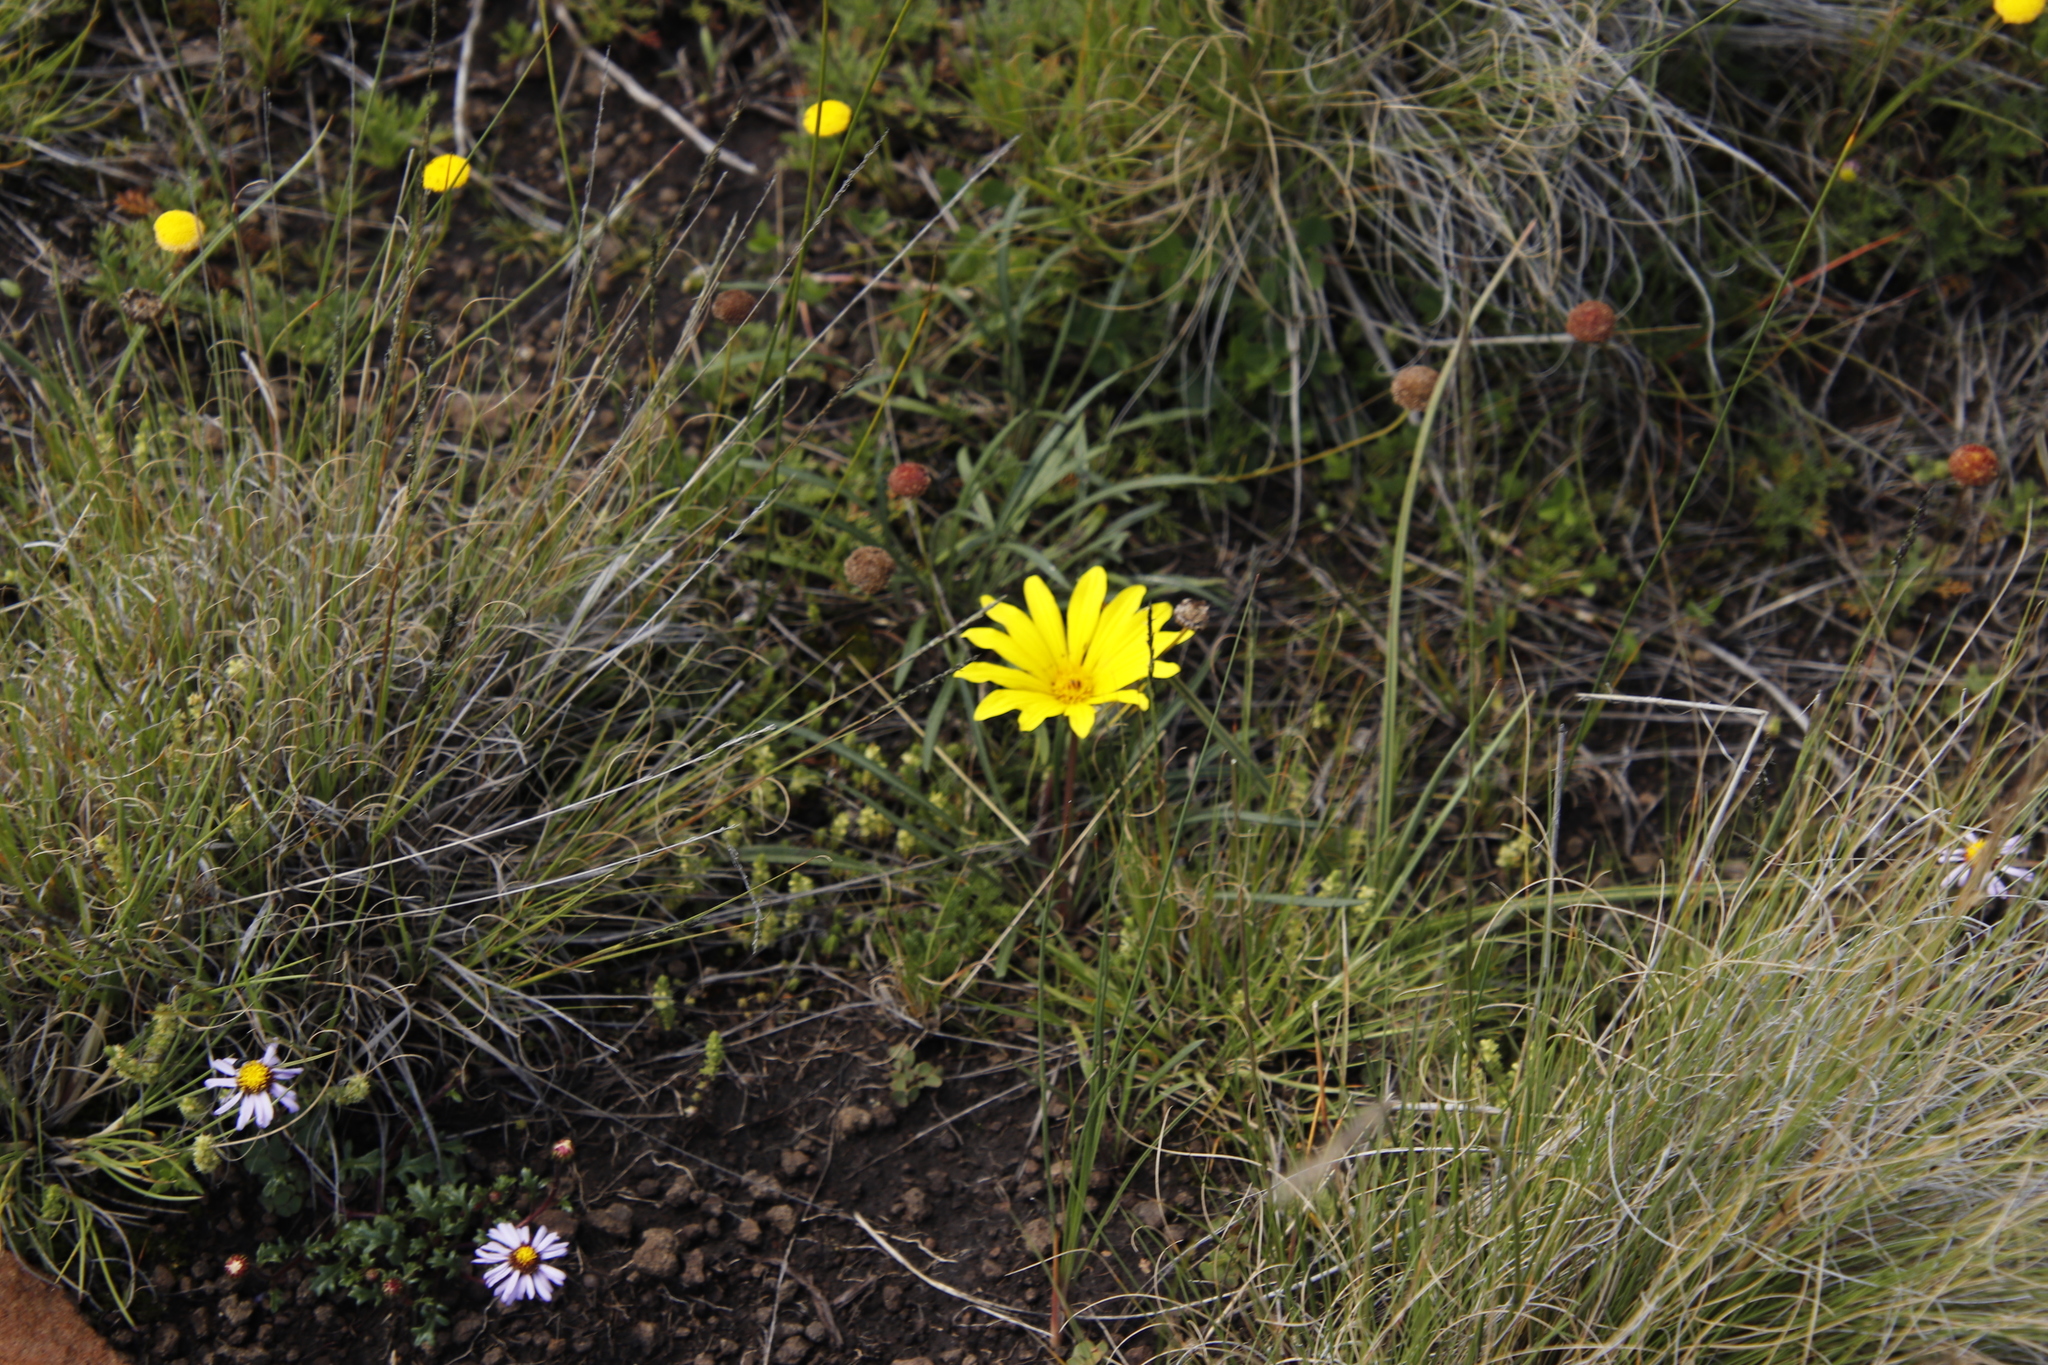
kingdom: Plantae
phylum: Tracheophyta
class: Magnoliopsida
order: Asterales
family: Asteraceae
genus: Gazania
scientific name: Gazania krebsiana
